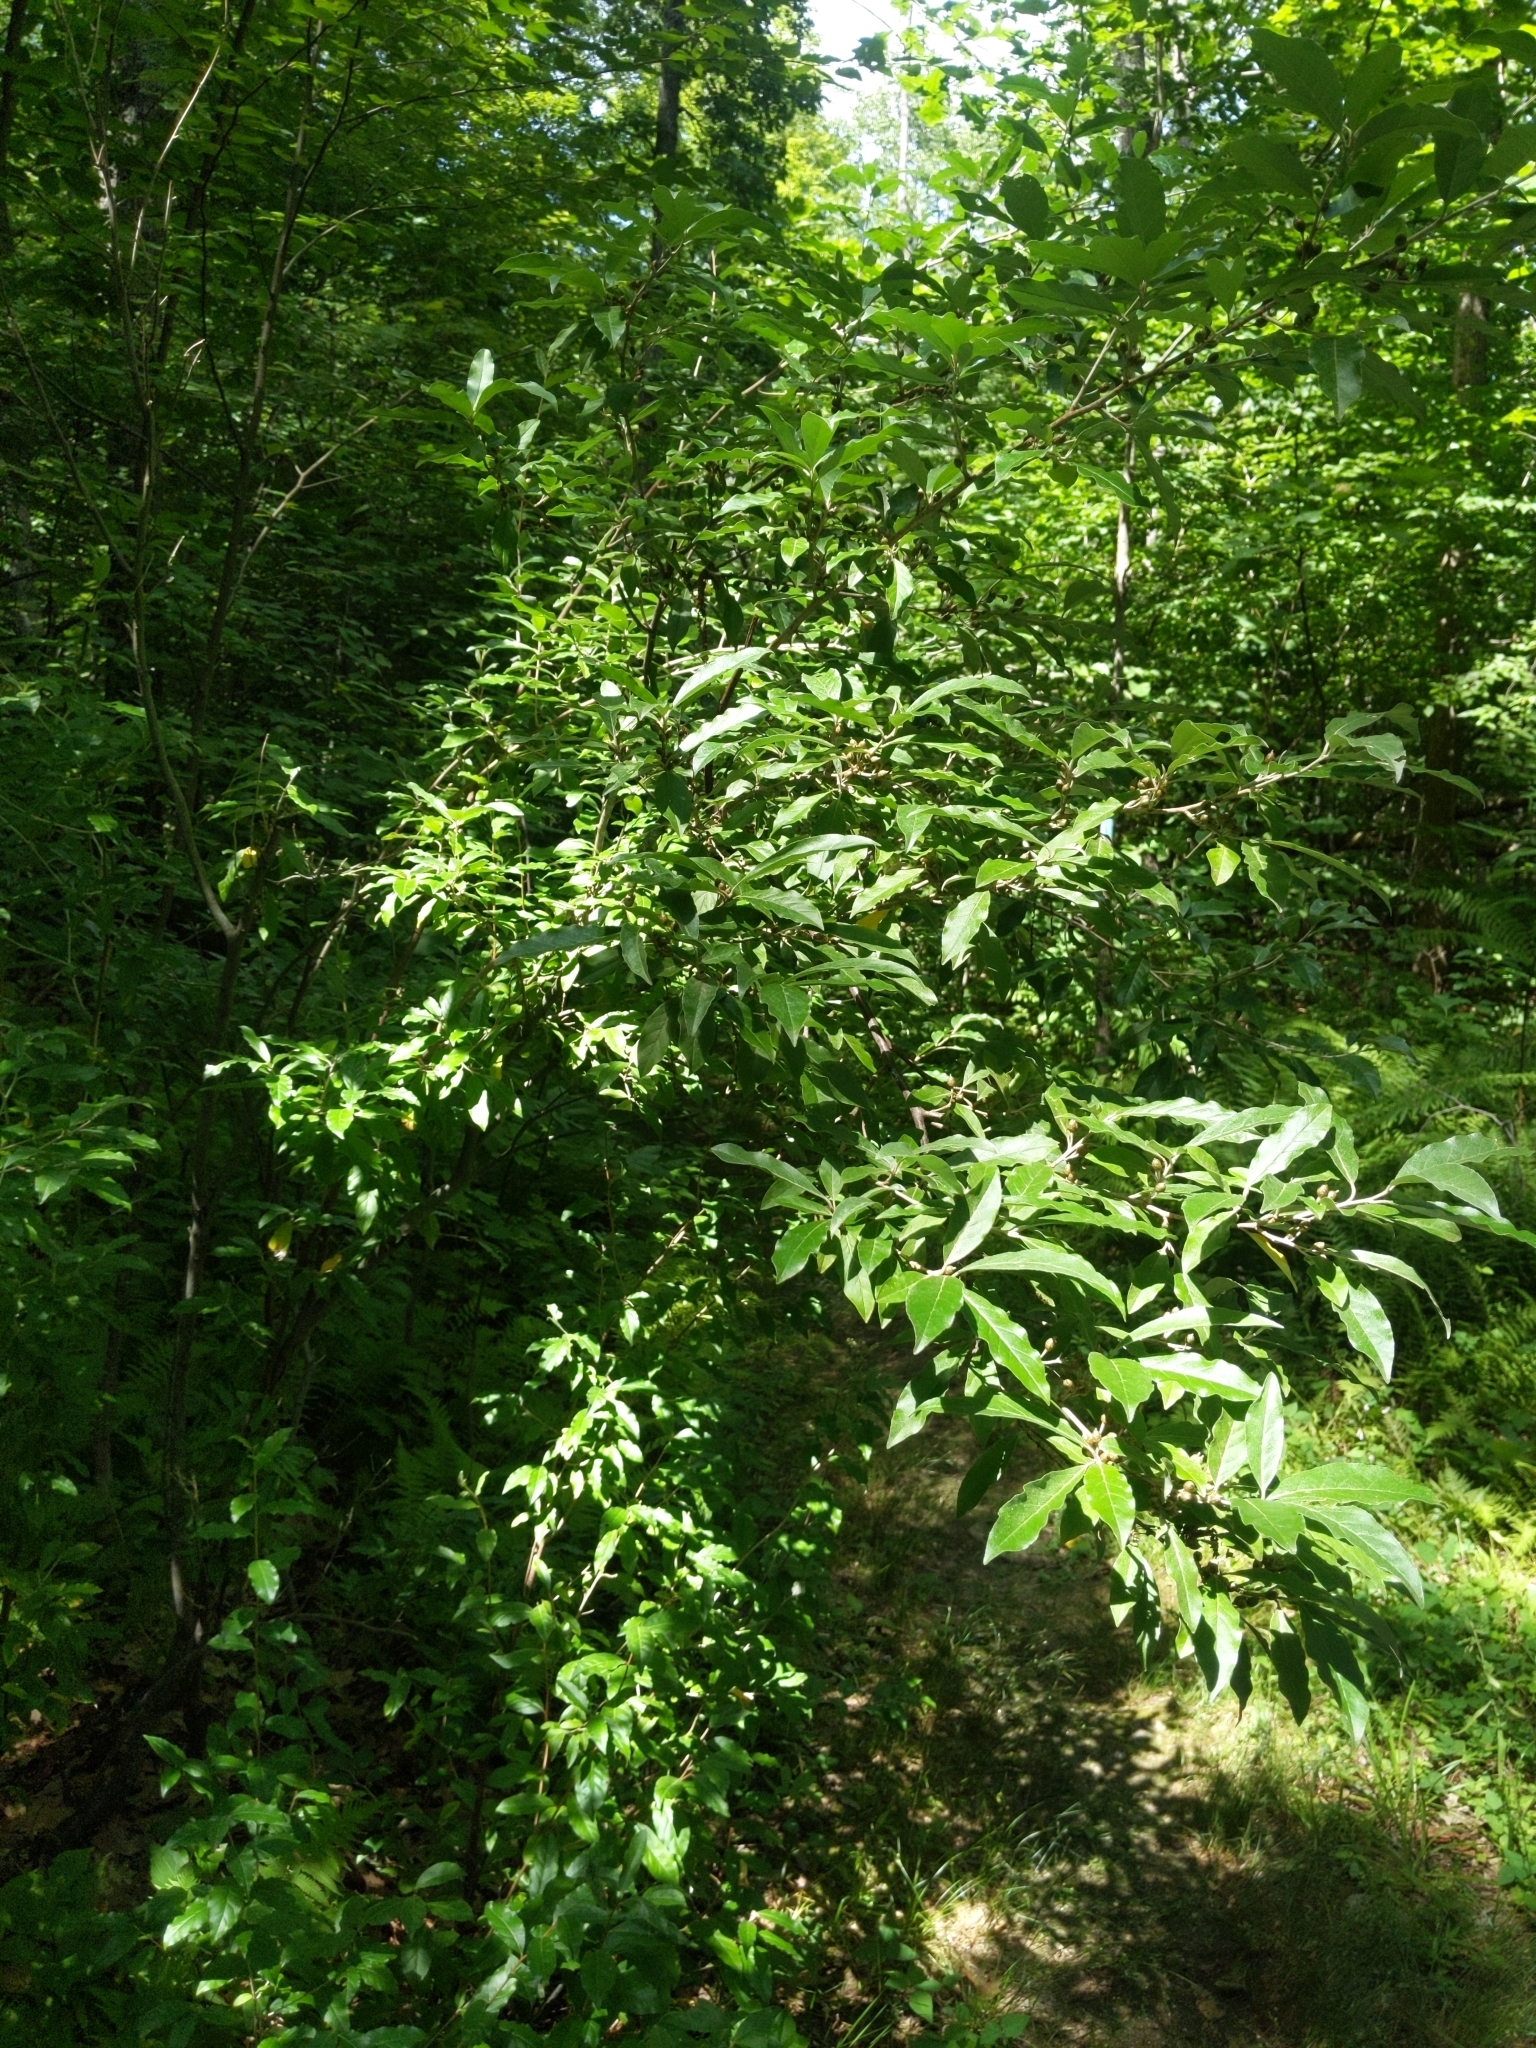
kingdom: Plantae
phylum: Tracheophyta
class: Magnoliopsida
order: Rosales
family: Elaeagnaceae
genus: Elaeagnus
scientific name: Elaeagnus umbellata
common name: Autumn olive
